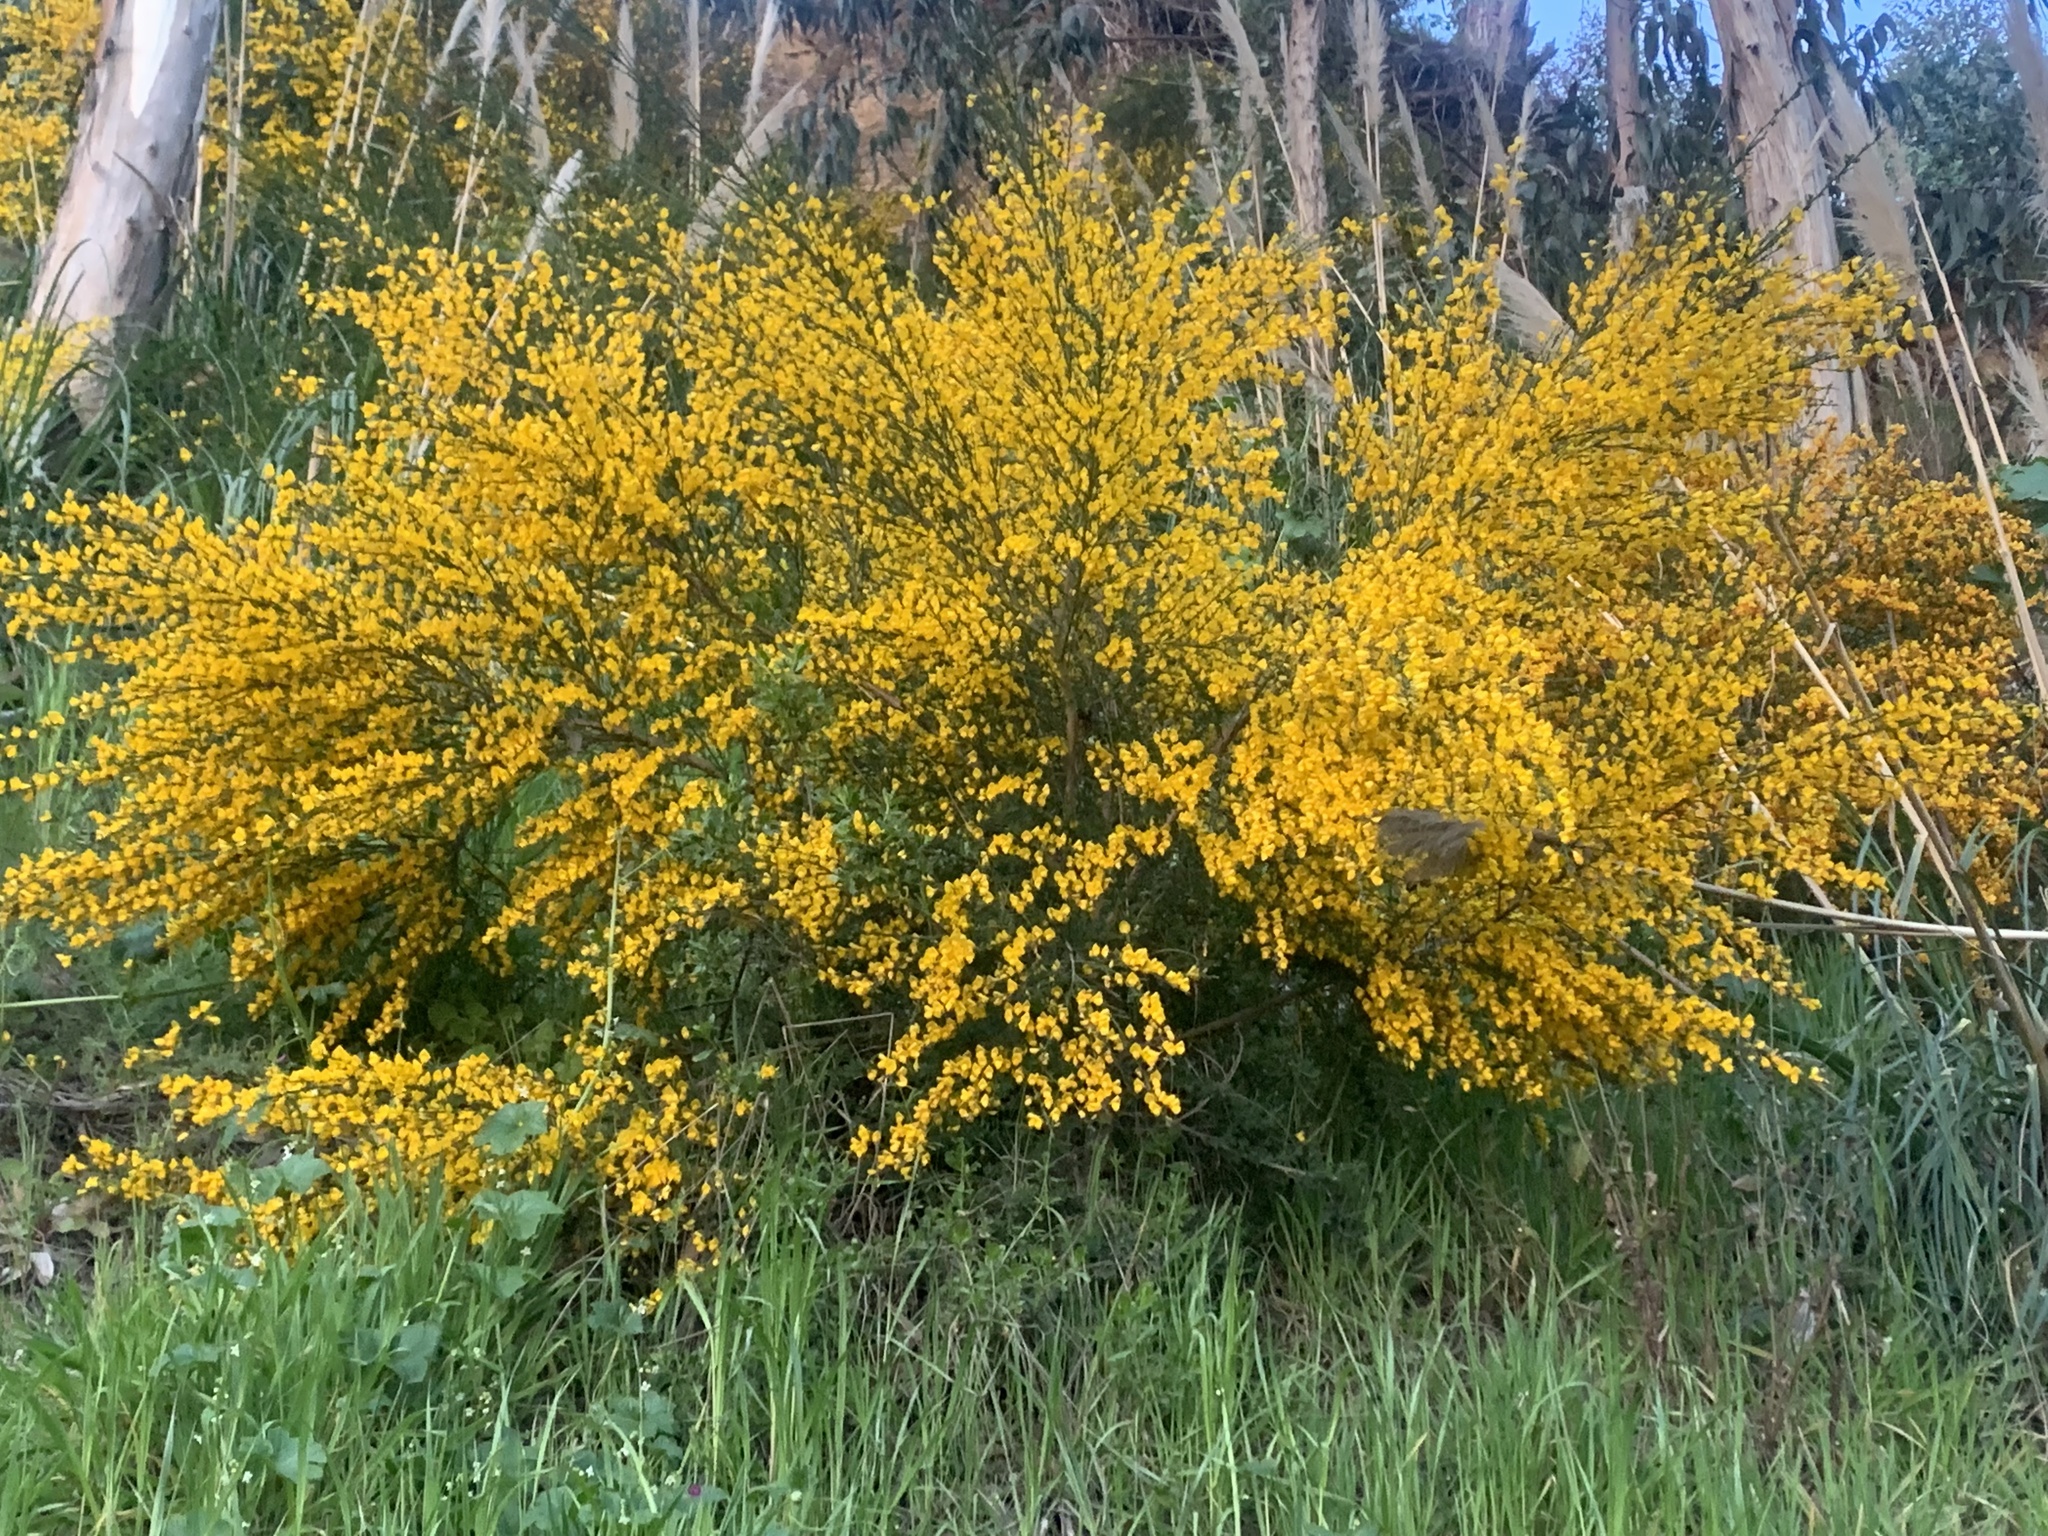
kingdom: Plantae
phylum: Tracheophyta
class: Magnoliopsida
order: Fabales
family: Fabaceae
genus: Cytisus
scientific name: Cytisus scoparius
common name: Scotch broom
